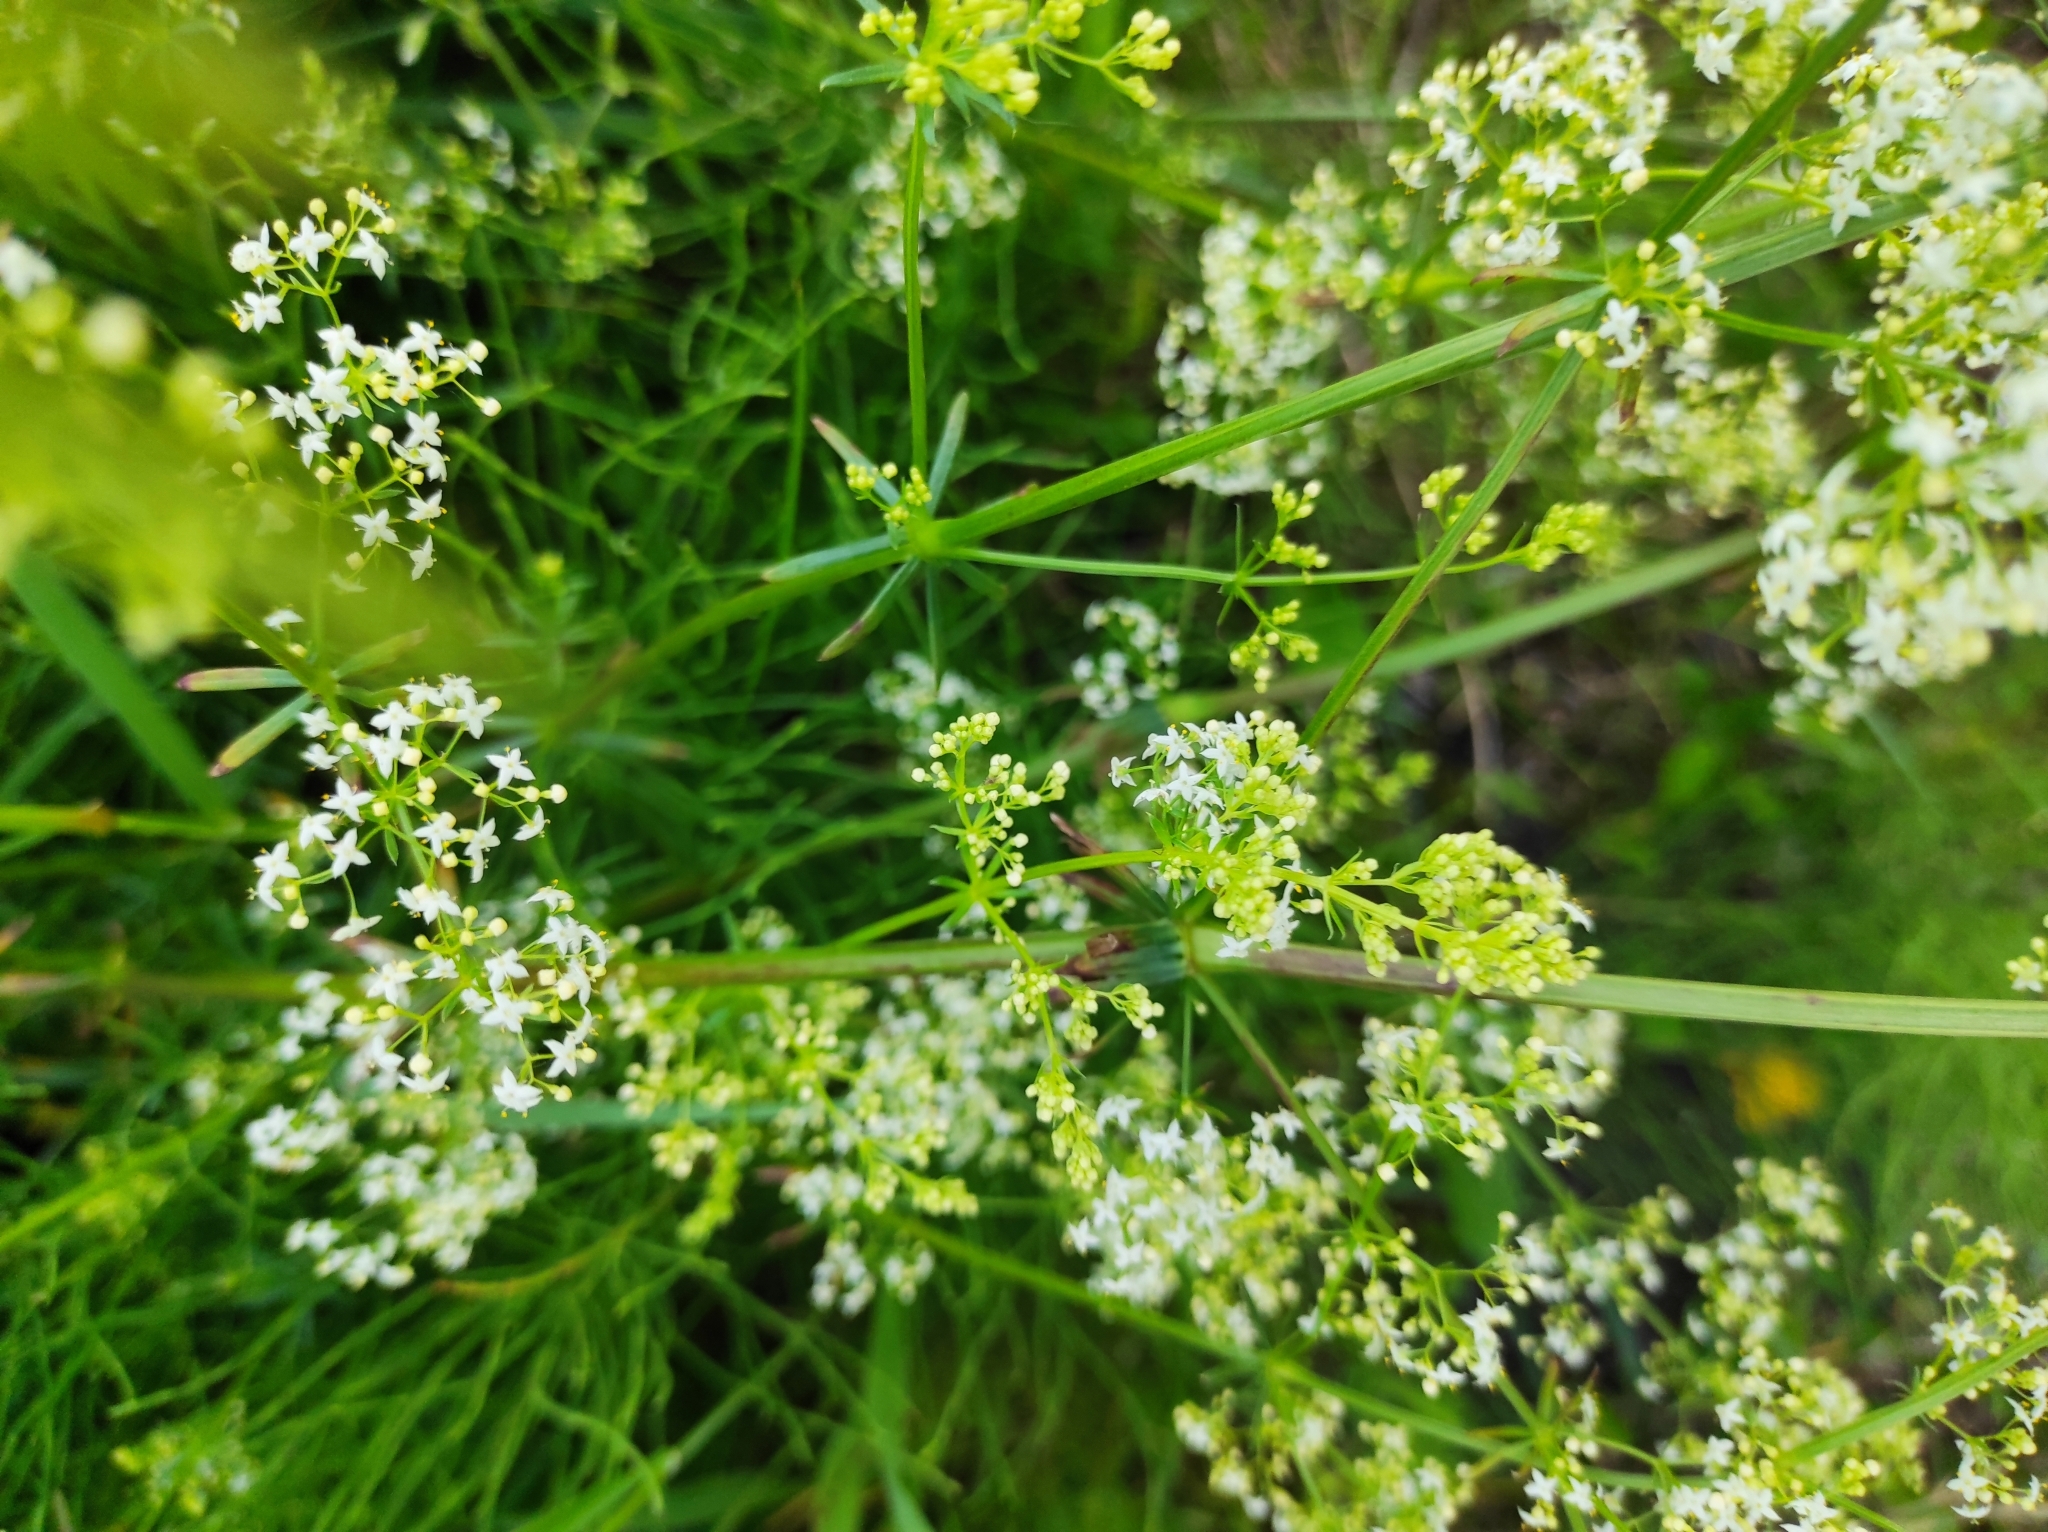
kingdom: Plantae
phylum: Tracheophyta
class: Magnoliopsida
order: Gentianales
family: Rubiaceae
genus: Galium
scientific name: Galium mollugo
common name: Hedge bedstraw
